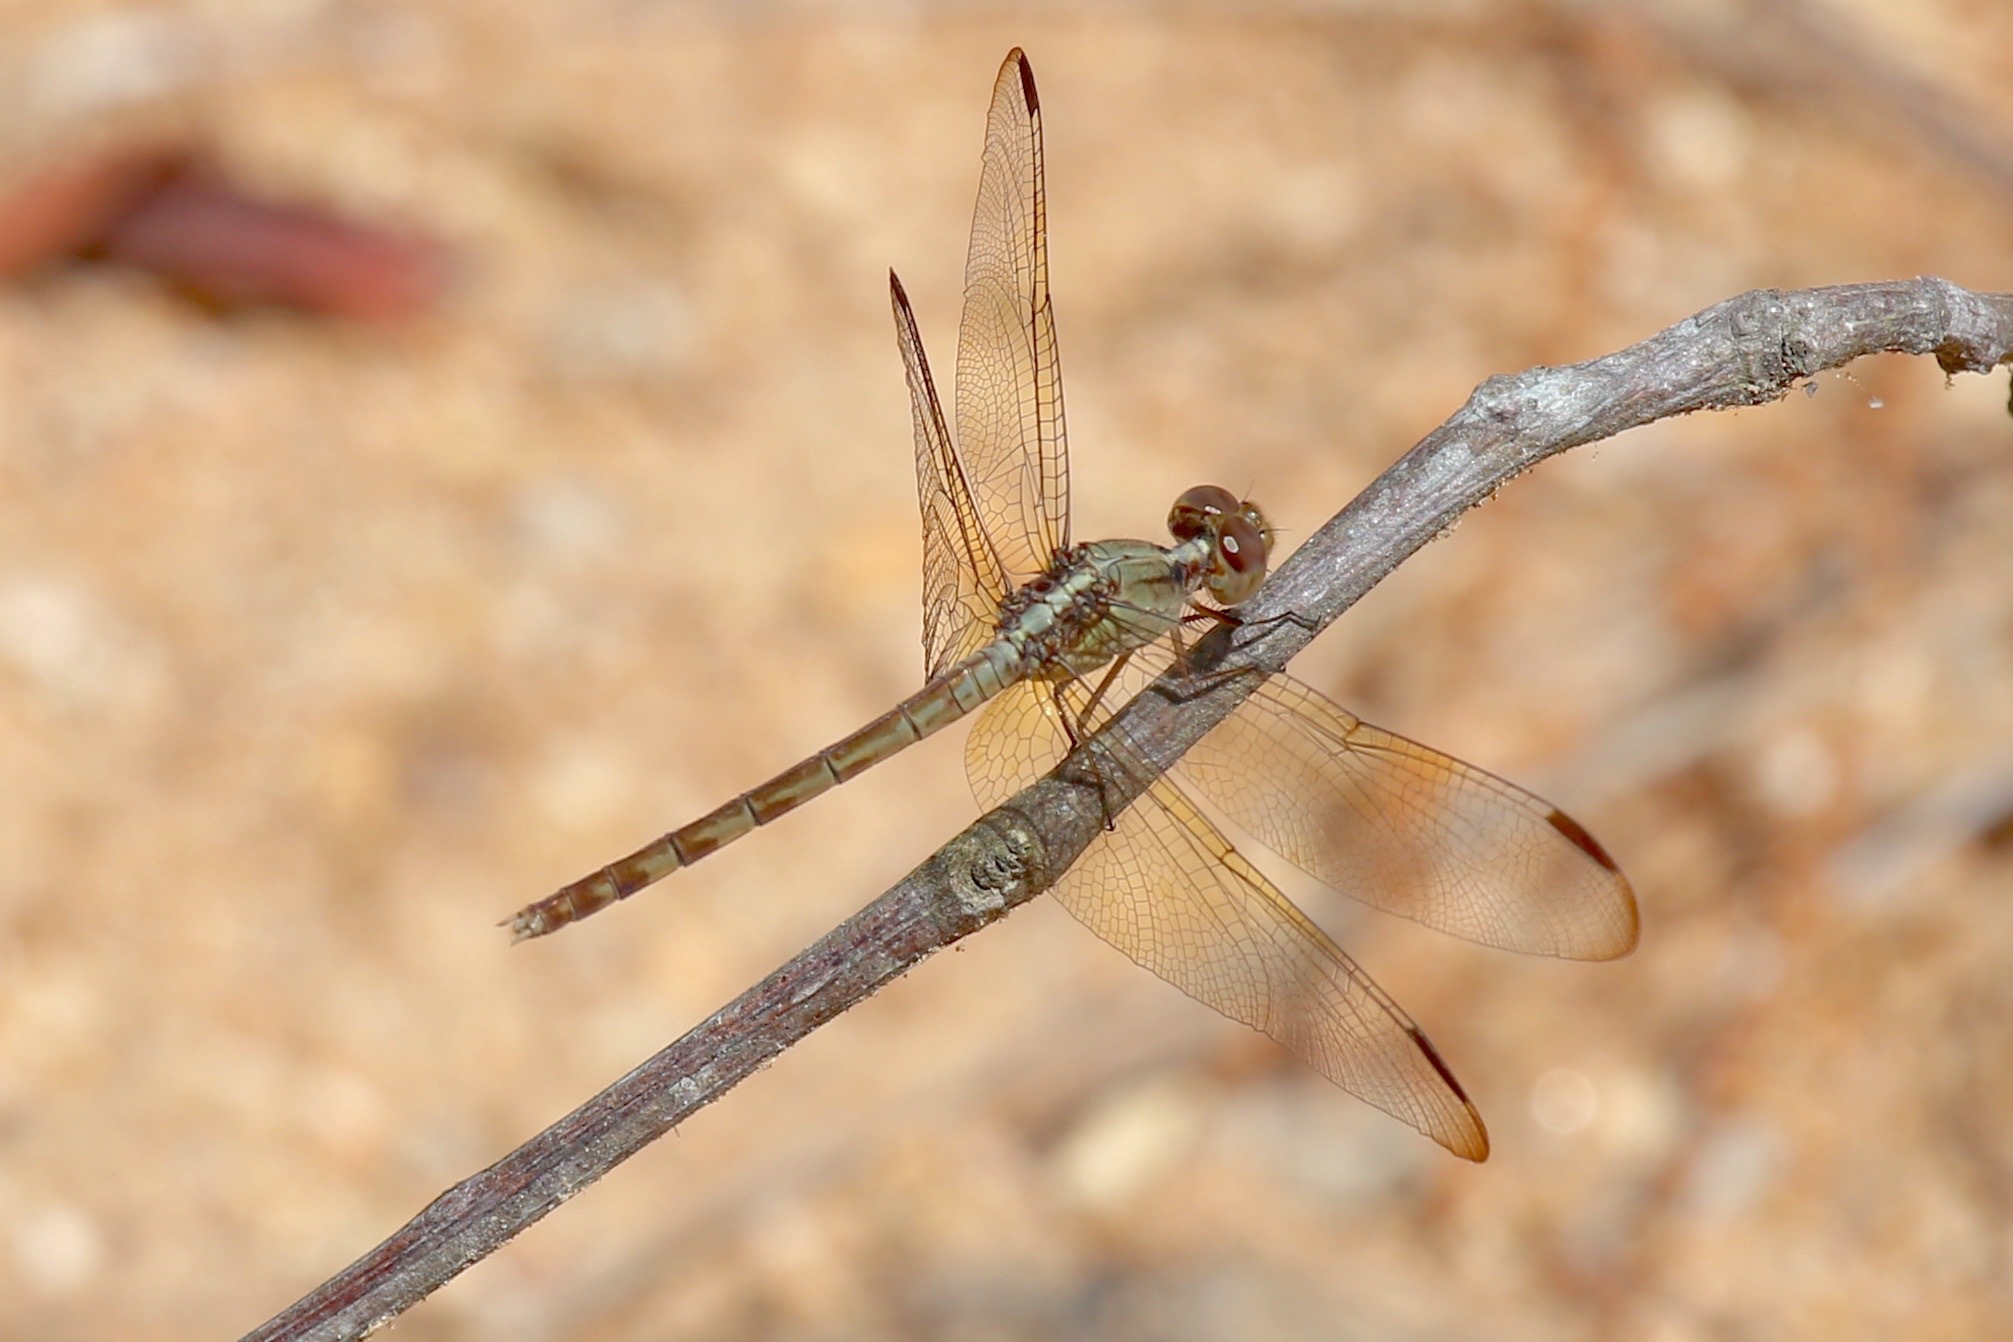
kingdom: Animalia
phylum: Arthropoda
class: Insecta
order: Odonata
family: Libellulidae
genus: Erythrodiplax
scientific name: Erythrodiplax funerea
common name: Black-winged dragonlet
